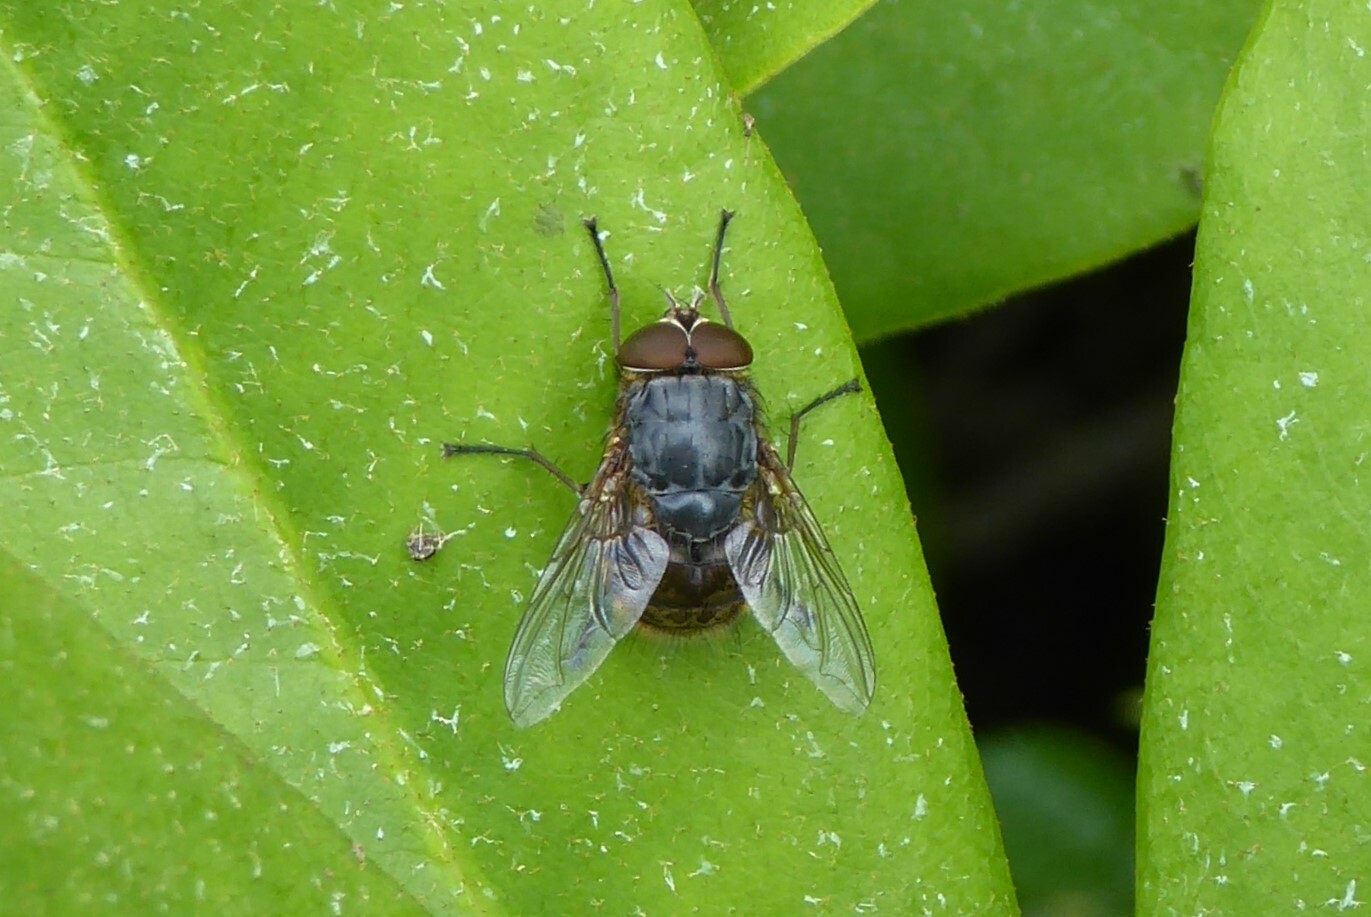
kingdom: Animalia
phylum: Arthropoda
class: Insecta
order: Diptera
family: Calliphoridae
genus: Calliphora
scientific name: Calliphora stygia
